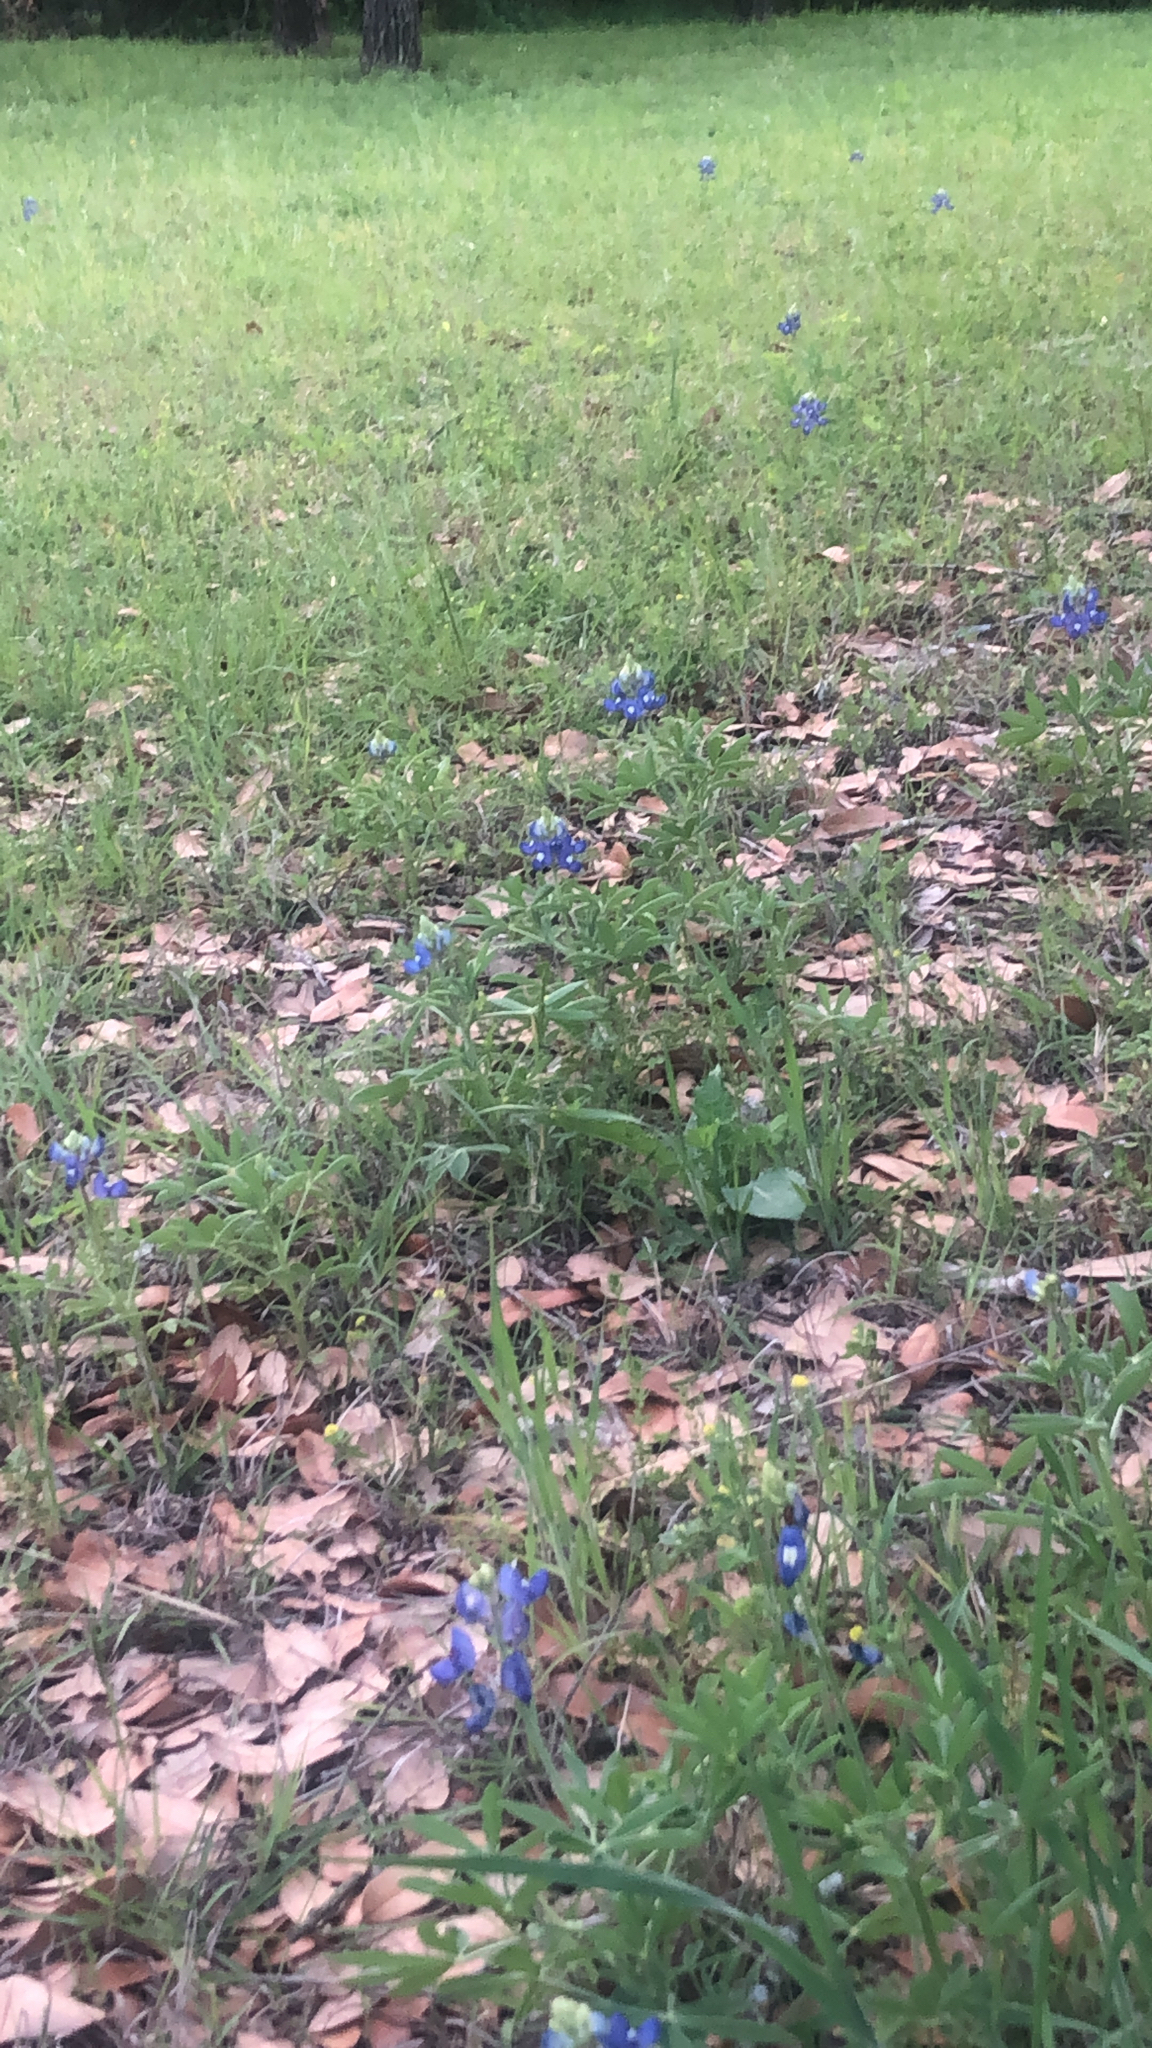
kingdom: Plantae
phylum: Tracheophyta
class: Magnoliopsida
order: Fabales
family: Fabaceae
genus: Lupinus
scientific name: Lupinus texensis
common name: Texas bluebonnet
